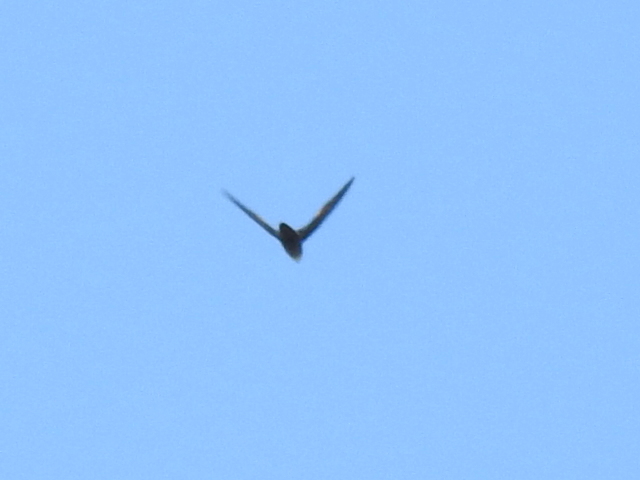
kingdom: Animalia
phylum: Chordata
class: Aves
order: Apodiformes
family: Apodidae
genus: Chaetura
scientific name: Chaetura pelagica
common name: Chimney swift
